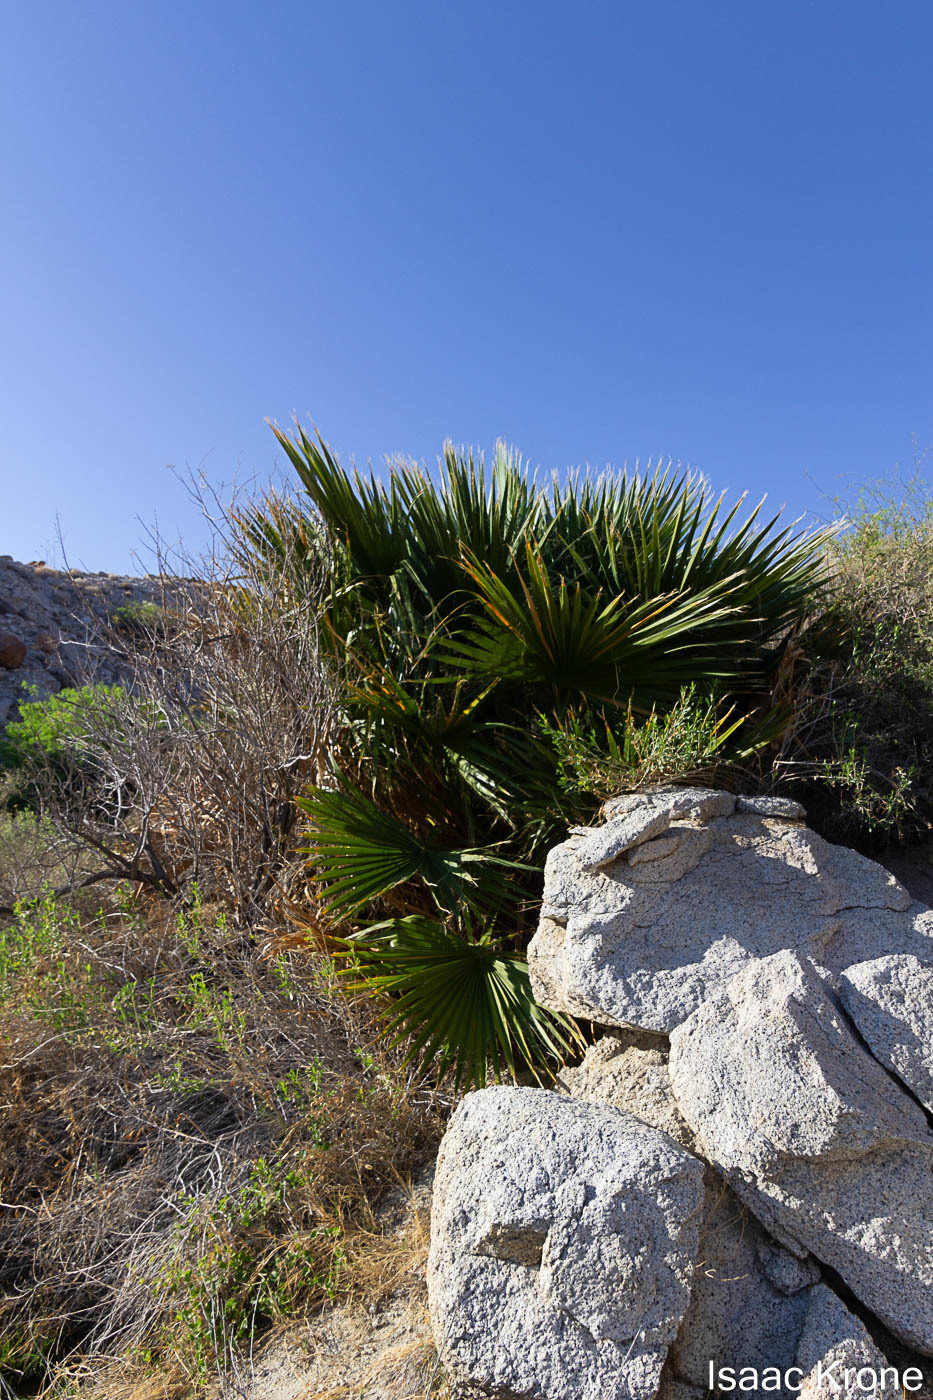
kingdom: Plantae
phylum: Tracheophyta
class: Liliopsida
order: Arecales
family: Arecaceae
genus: Washingtonia
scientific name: Washingtonia filifera
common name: California fan palm
